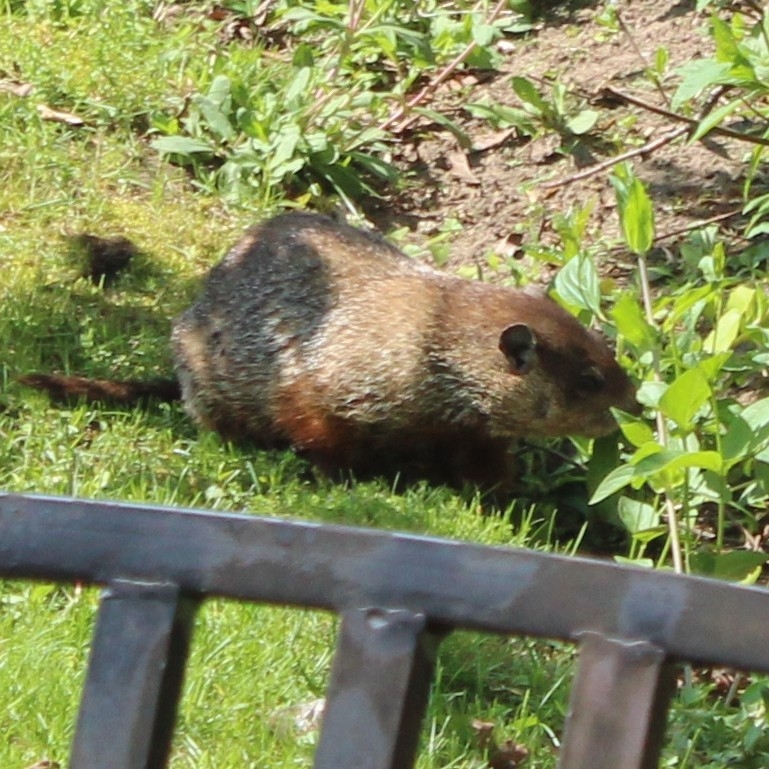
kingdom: Animalia
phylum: Chordata
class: Mammalia
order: Rodentia
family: Sciuridae
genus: Marmota
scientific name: Marmota monax
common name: Groundhog
